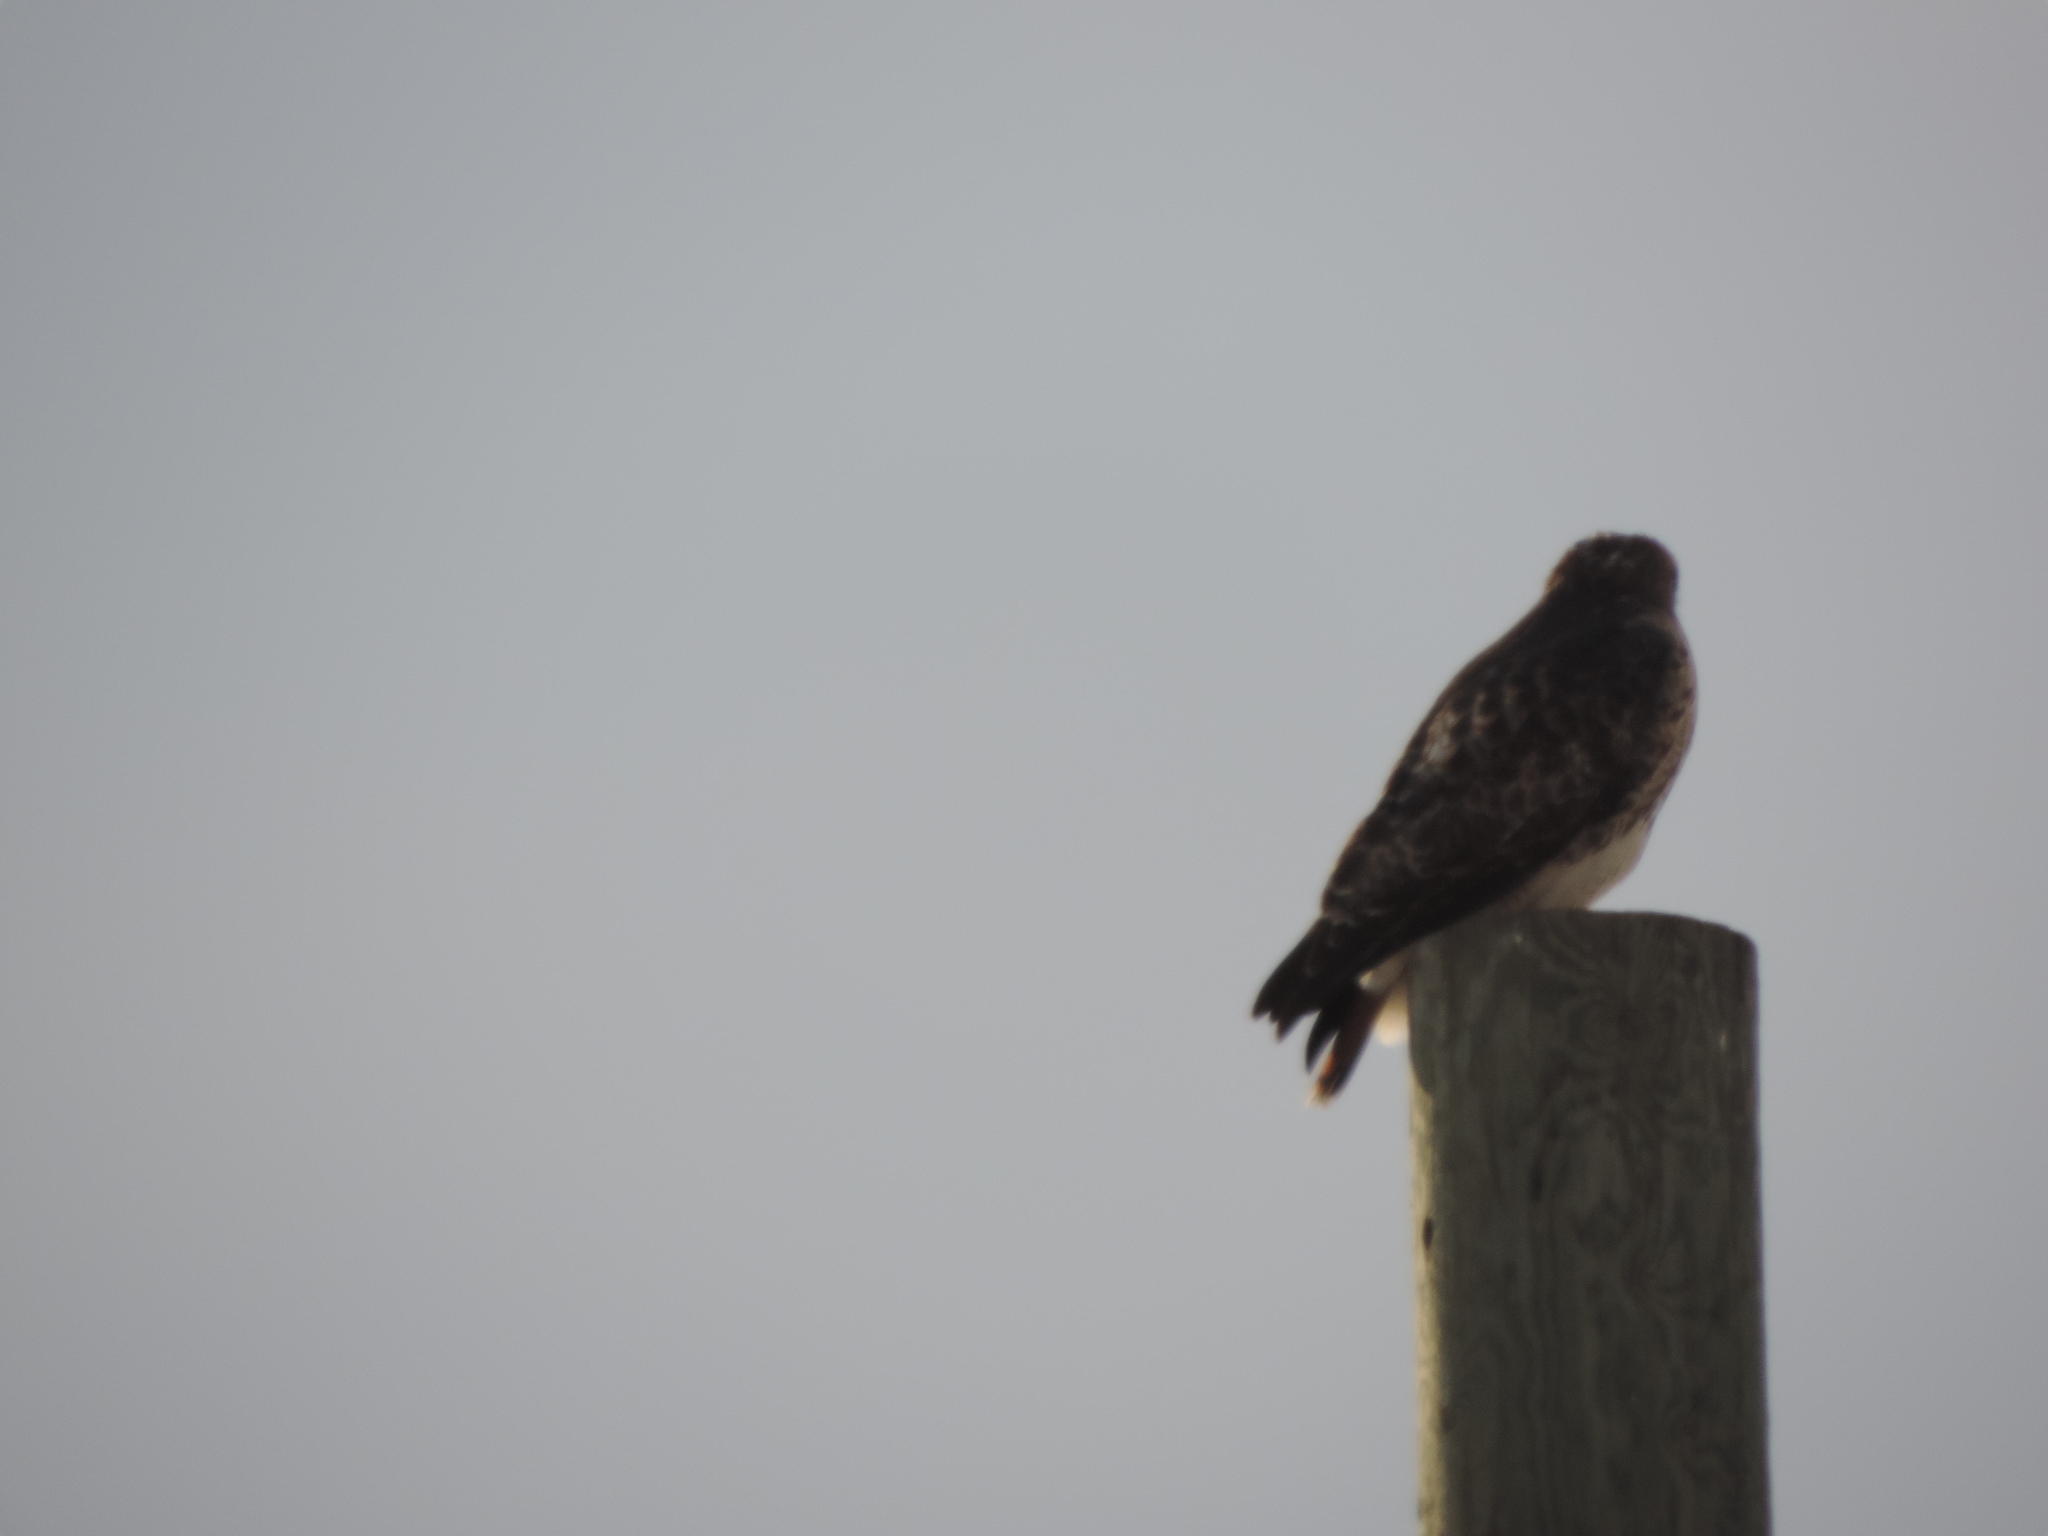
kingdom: Animalia
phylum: Chordata
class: Aves
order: Accipitriformes
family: Accipitridae
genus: Buteo
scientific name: Buteo jamaicensis
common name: Red-tailed hawk
